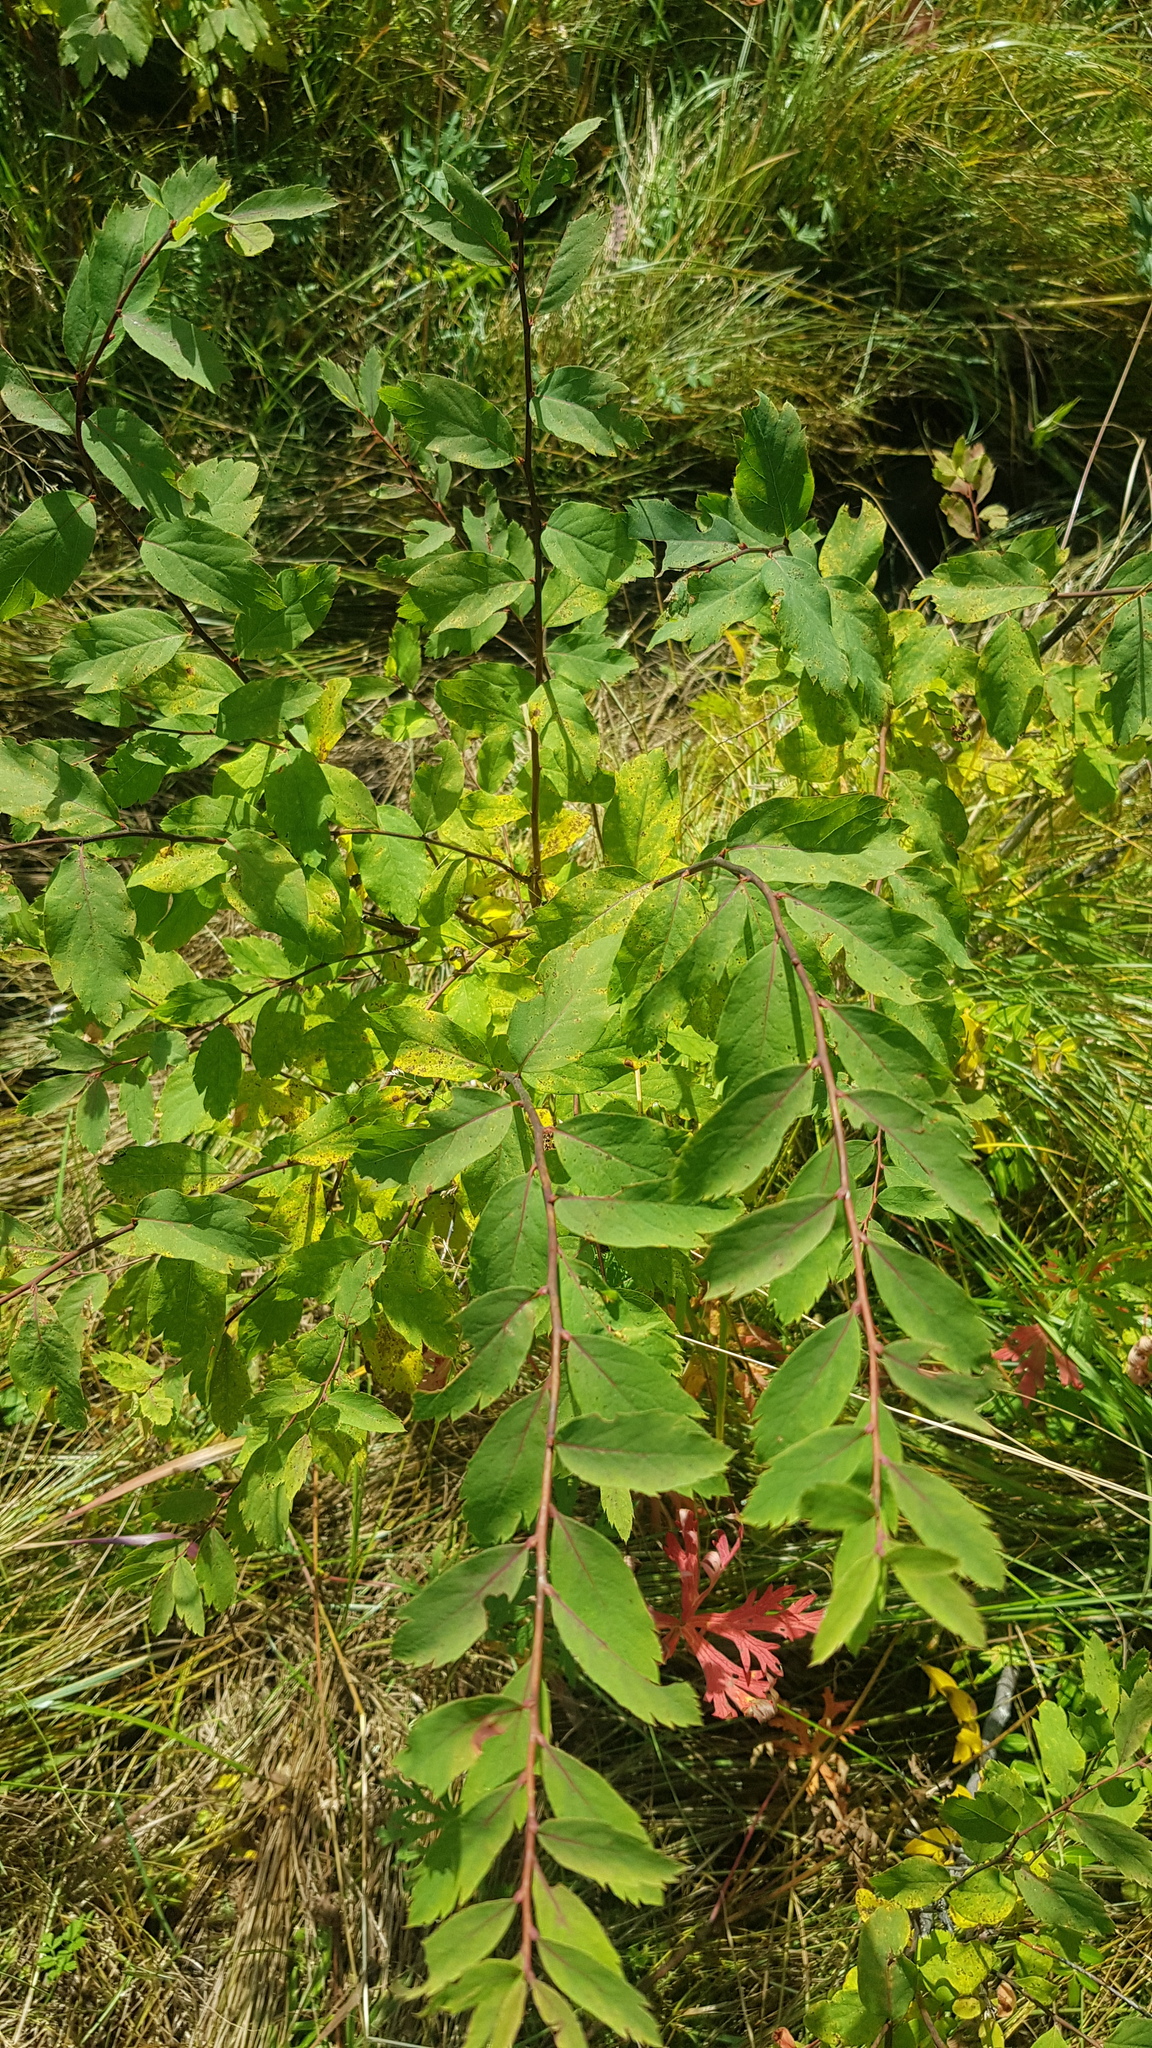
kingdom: Plantae
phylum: Tracheophyta
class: Magnoliopsida
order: Rosales
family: Rosaceae
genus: Spiraea
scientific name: Spiraea media
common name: Russian spiraea
